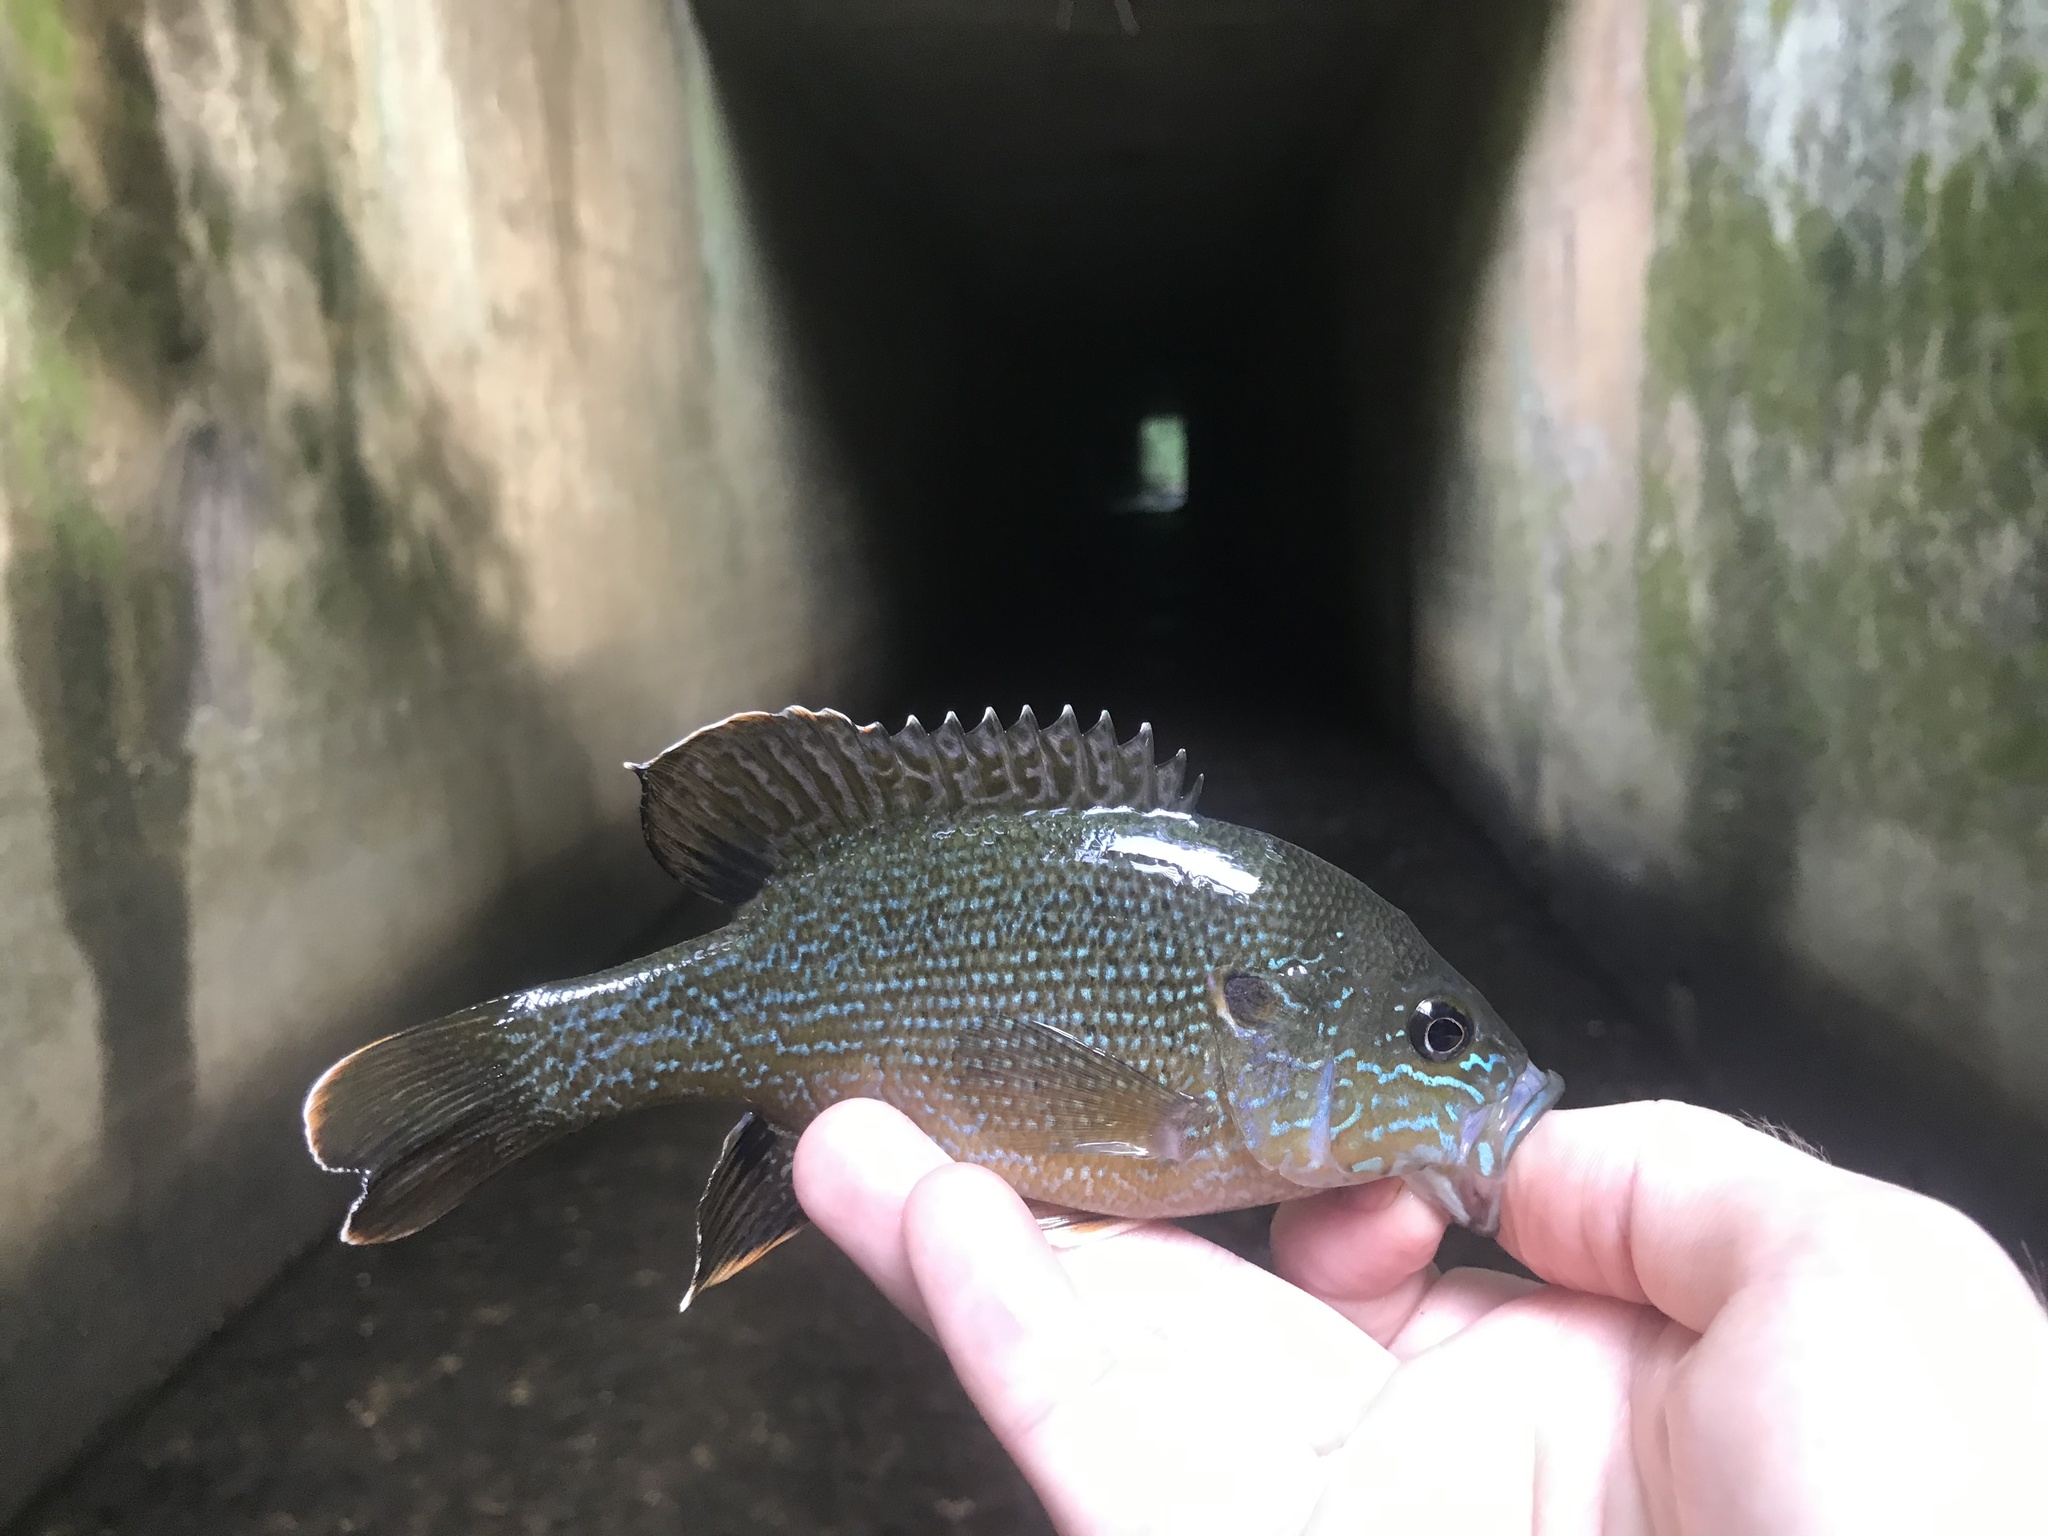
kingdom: Animalia
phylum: Chordata
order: Perciformes
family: Centrarchidae
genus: Lepomis
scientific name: Lepomis cyanellus
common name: Green sunfish
